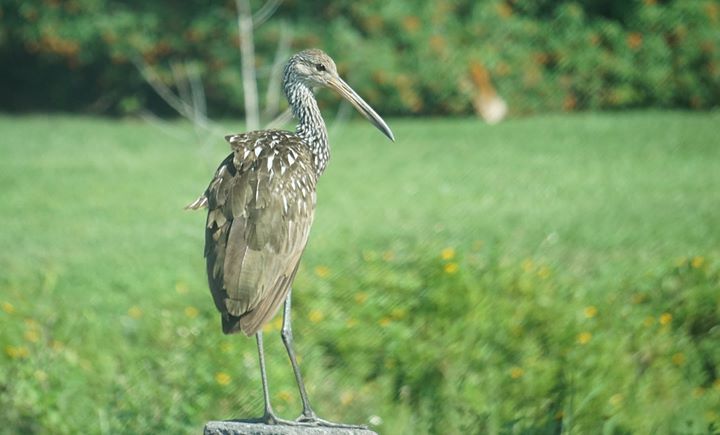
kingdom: Animalia
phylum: Chordata
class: Aves
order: Gruiformes
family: Aramidae
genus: Aramus
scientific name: Aramus guarauna
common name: Limpkin
